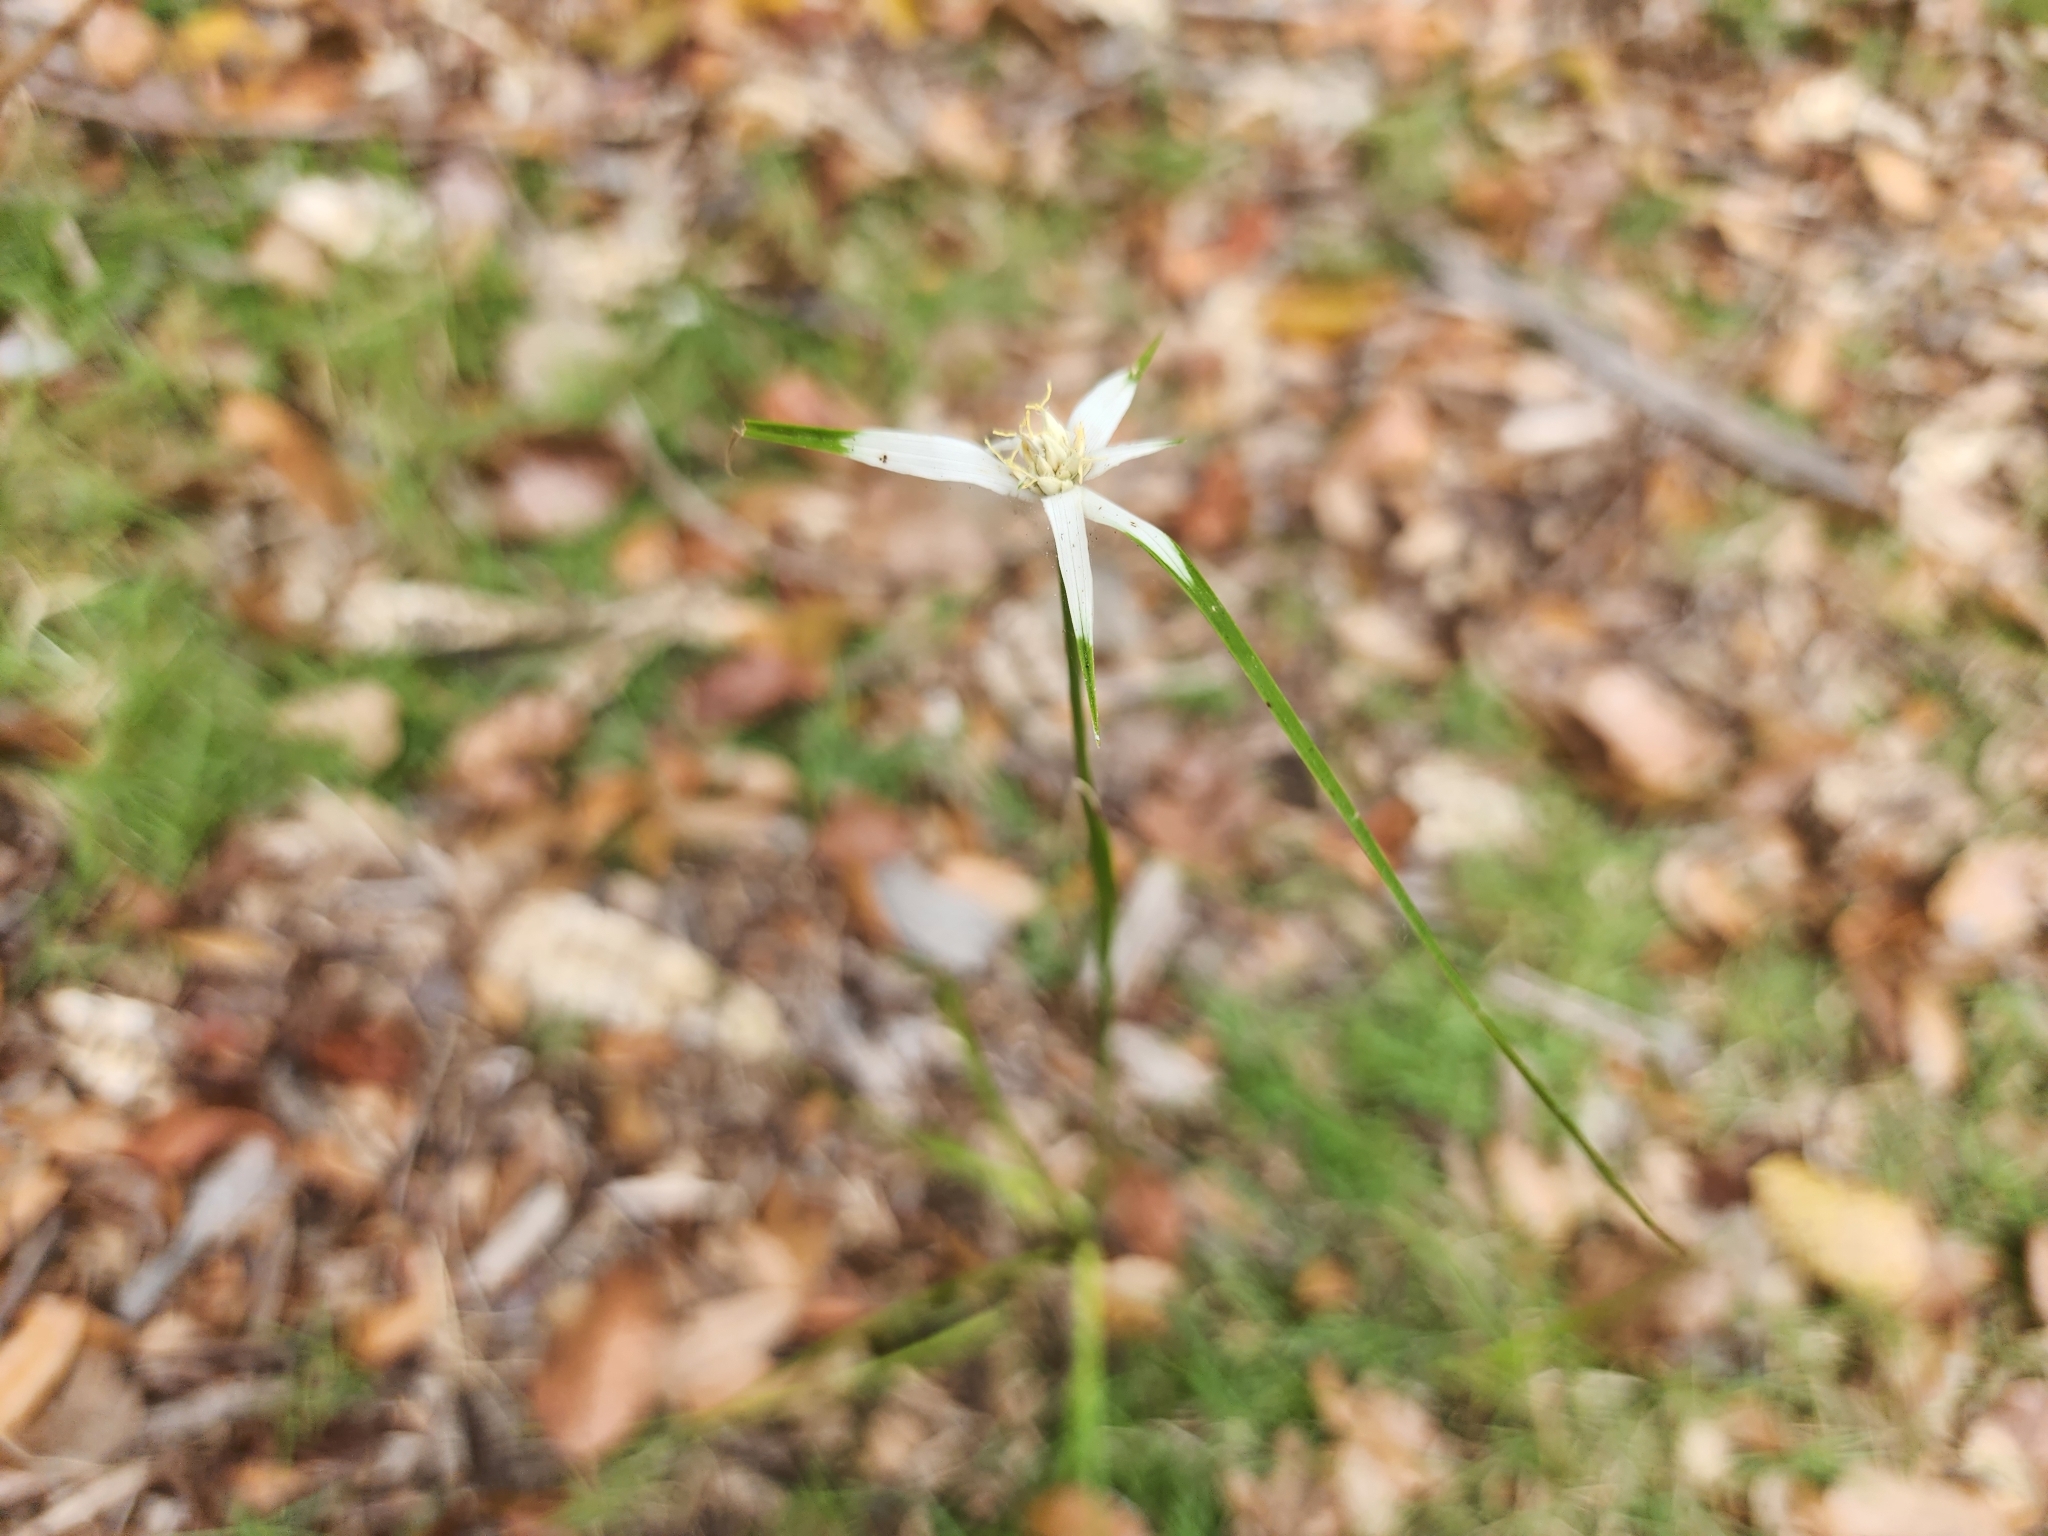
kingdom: Plantae
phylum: Tracheophyta
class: Liliopsida
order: Poales
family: Cyperaceae
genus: Rhynchospora
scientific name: Rhynchospora colorata
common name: Star sedge
